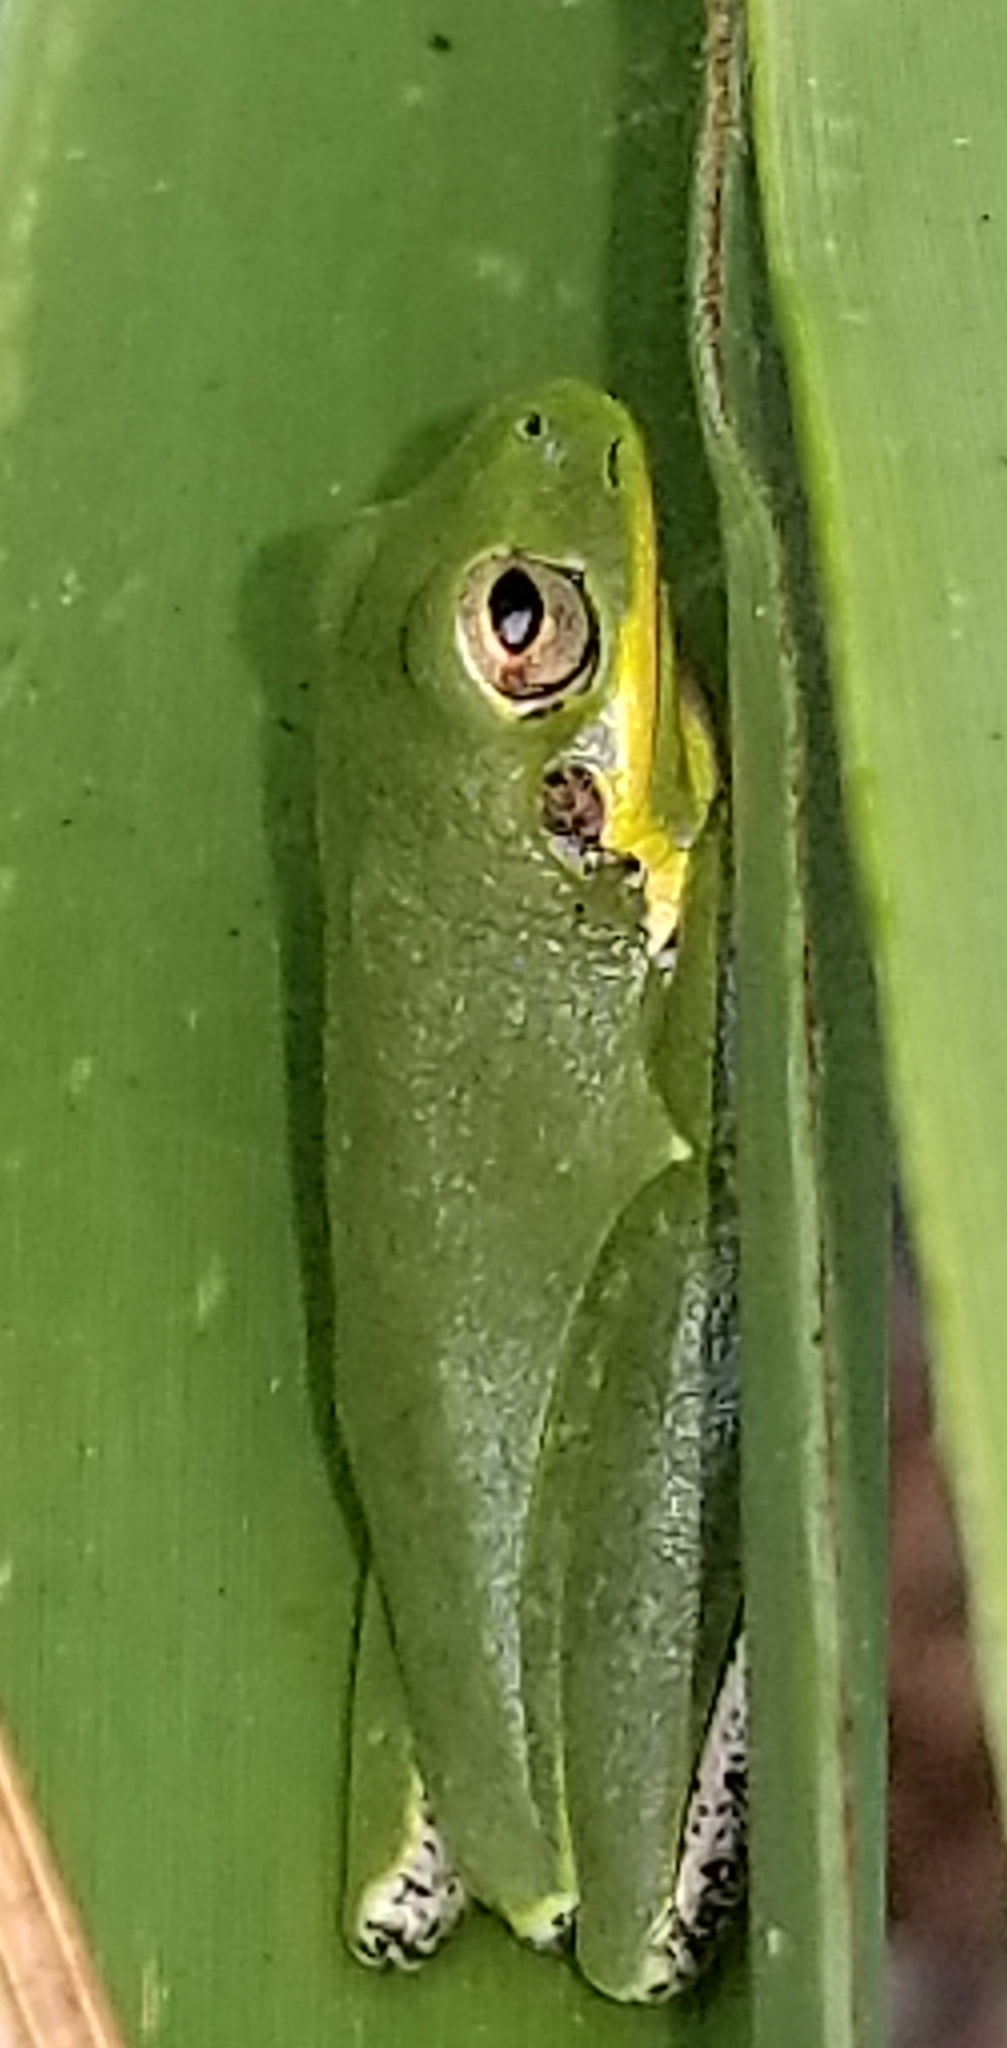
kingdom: Animalia
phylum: Chordata
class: Amphibia
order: Anura
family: Hylidae
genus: Dryophytes
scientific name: Dryophytes cinereus
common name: Green treefrog
